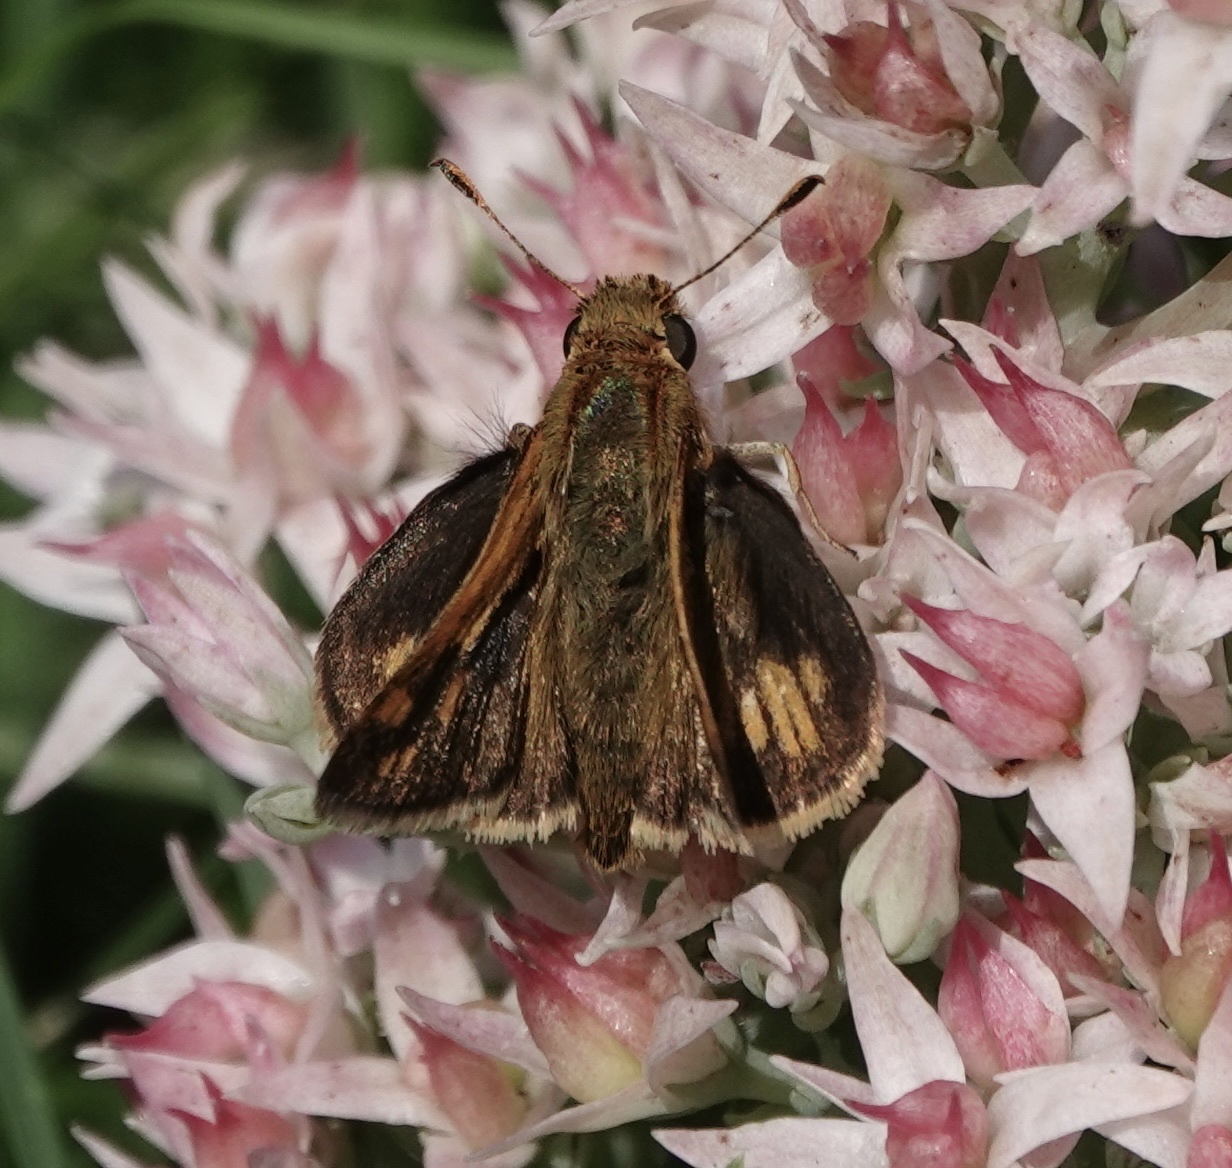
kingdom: Animalia
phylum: Arthropoda
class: Insecta
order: Lepidoptera
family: Hesperiidae
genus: Polites
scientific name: Polites coras
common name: Peck's skipper
